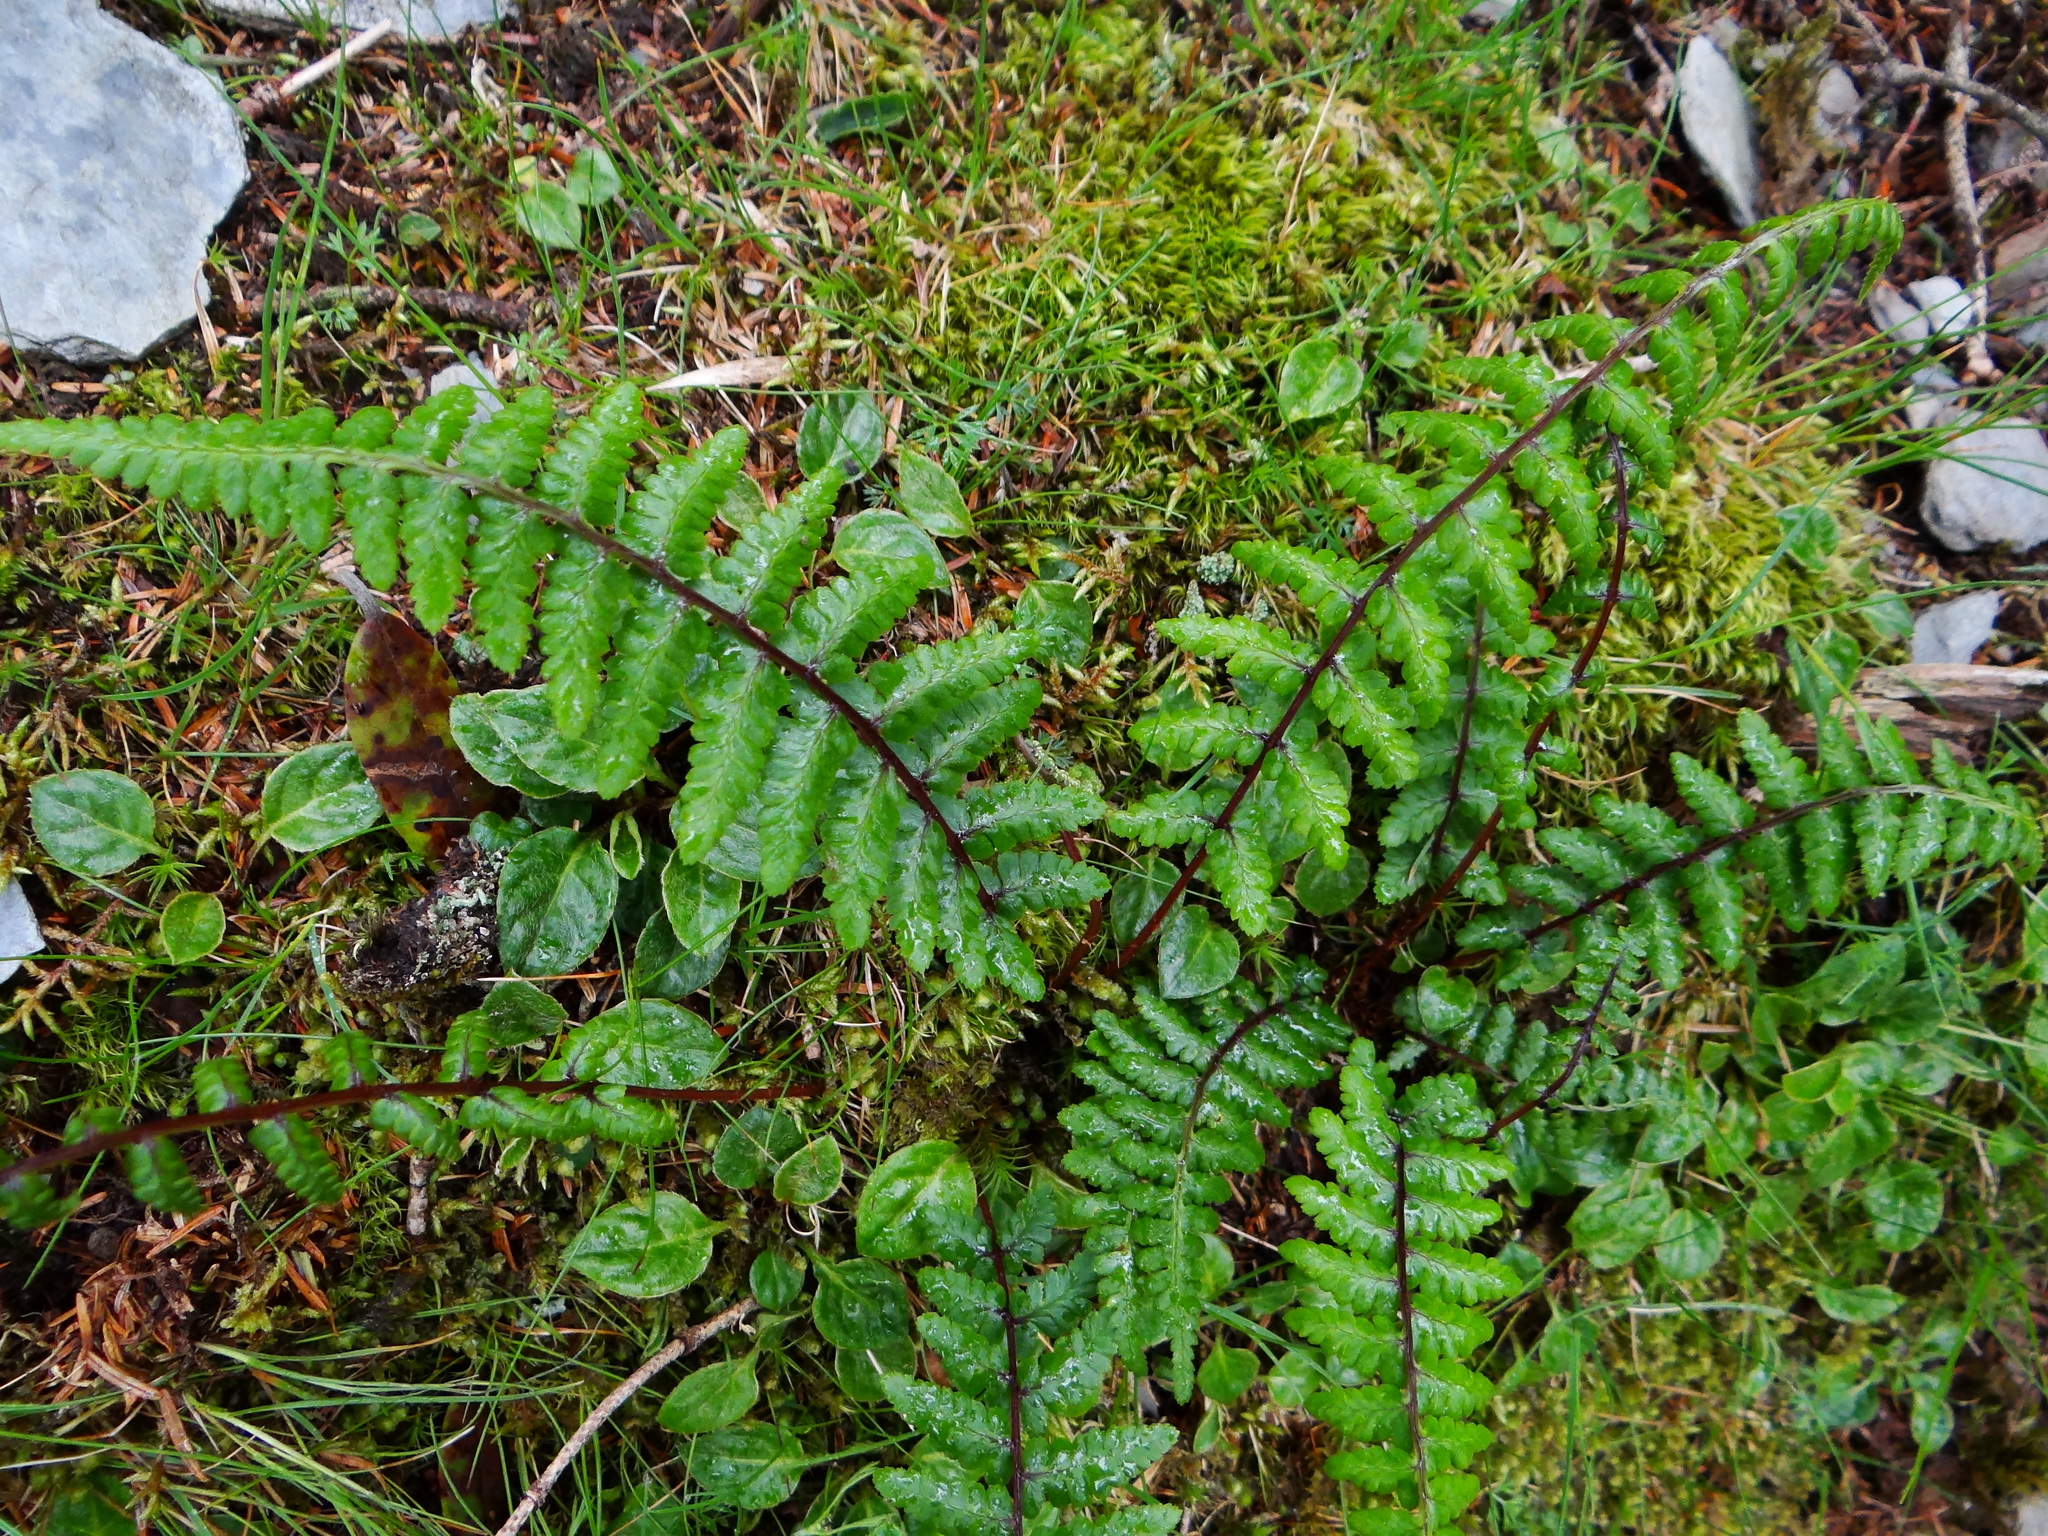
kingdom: Plantae
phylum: Tracheophyta
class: Polypodiopsida
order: Polypodiales
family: Athyriaceae
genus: Athyrium
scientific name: Athyrium oppositipennum
